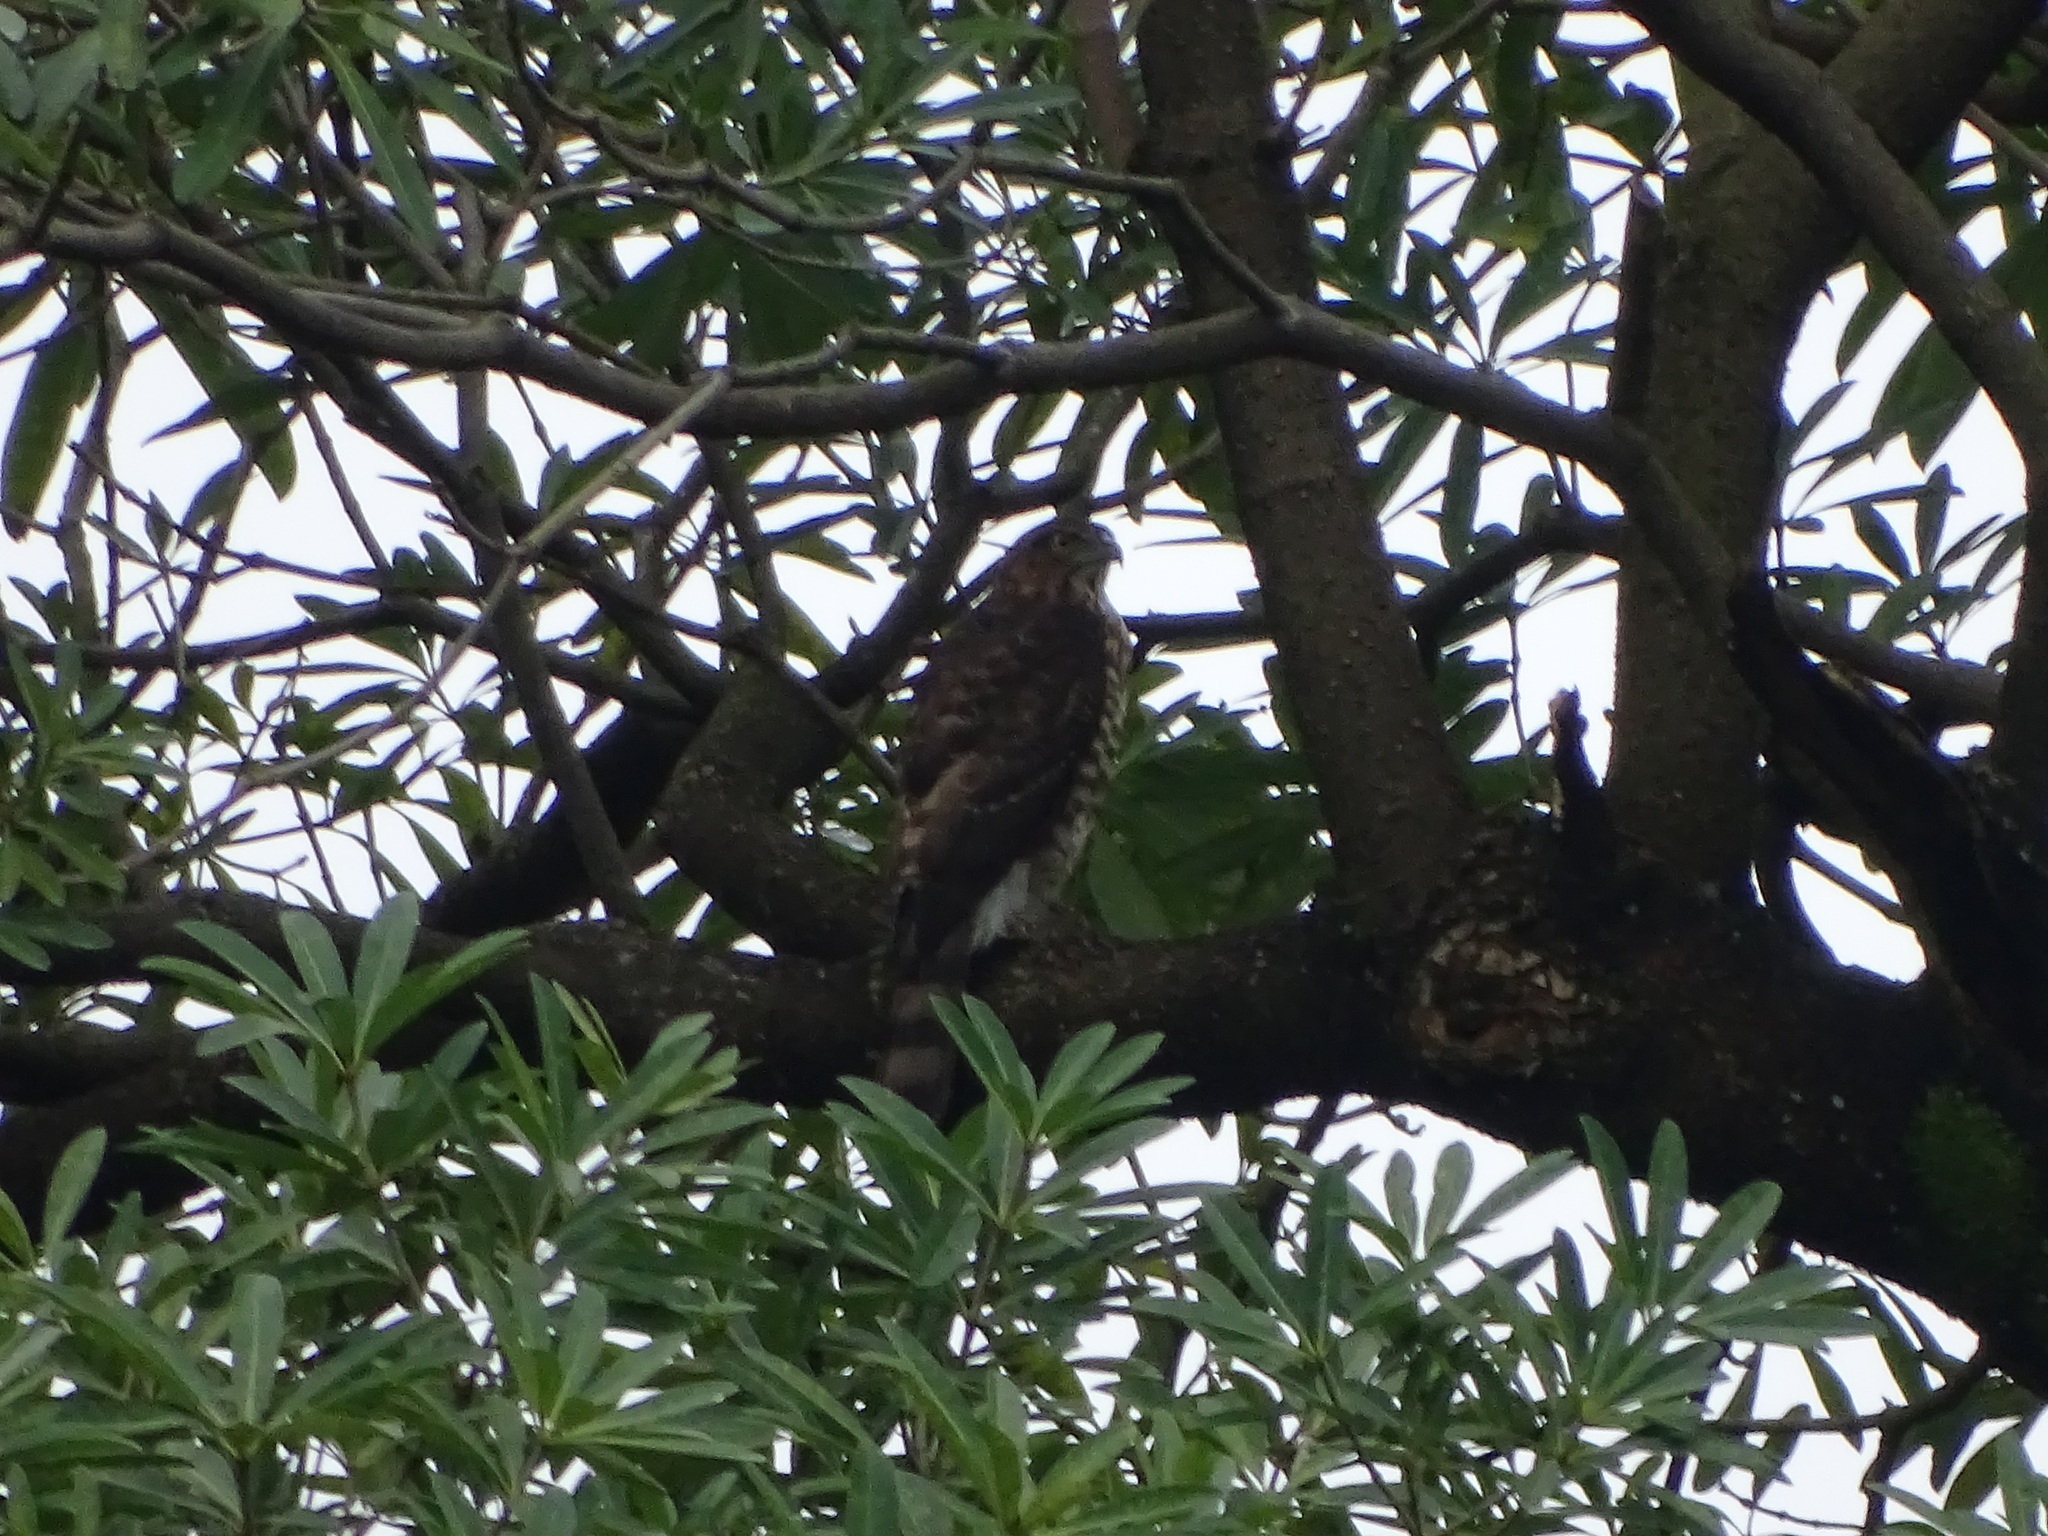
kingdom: Animalia
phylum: Chordata
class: Aves
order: Accipitriformes
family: Accipitridae
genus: Accipiter
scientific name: Accipiter trivirgatus
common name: Crested goshawk
